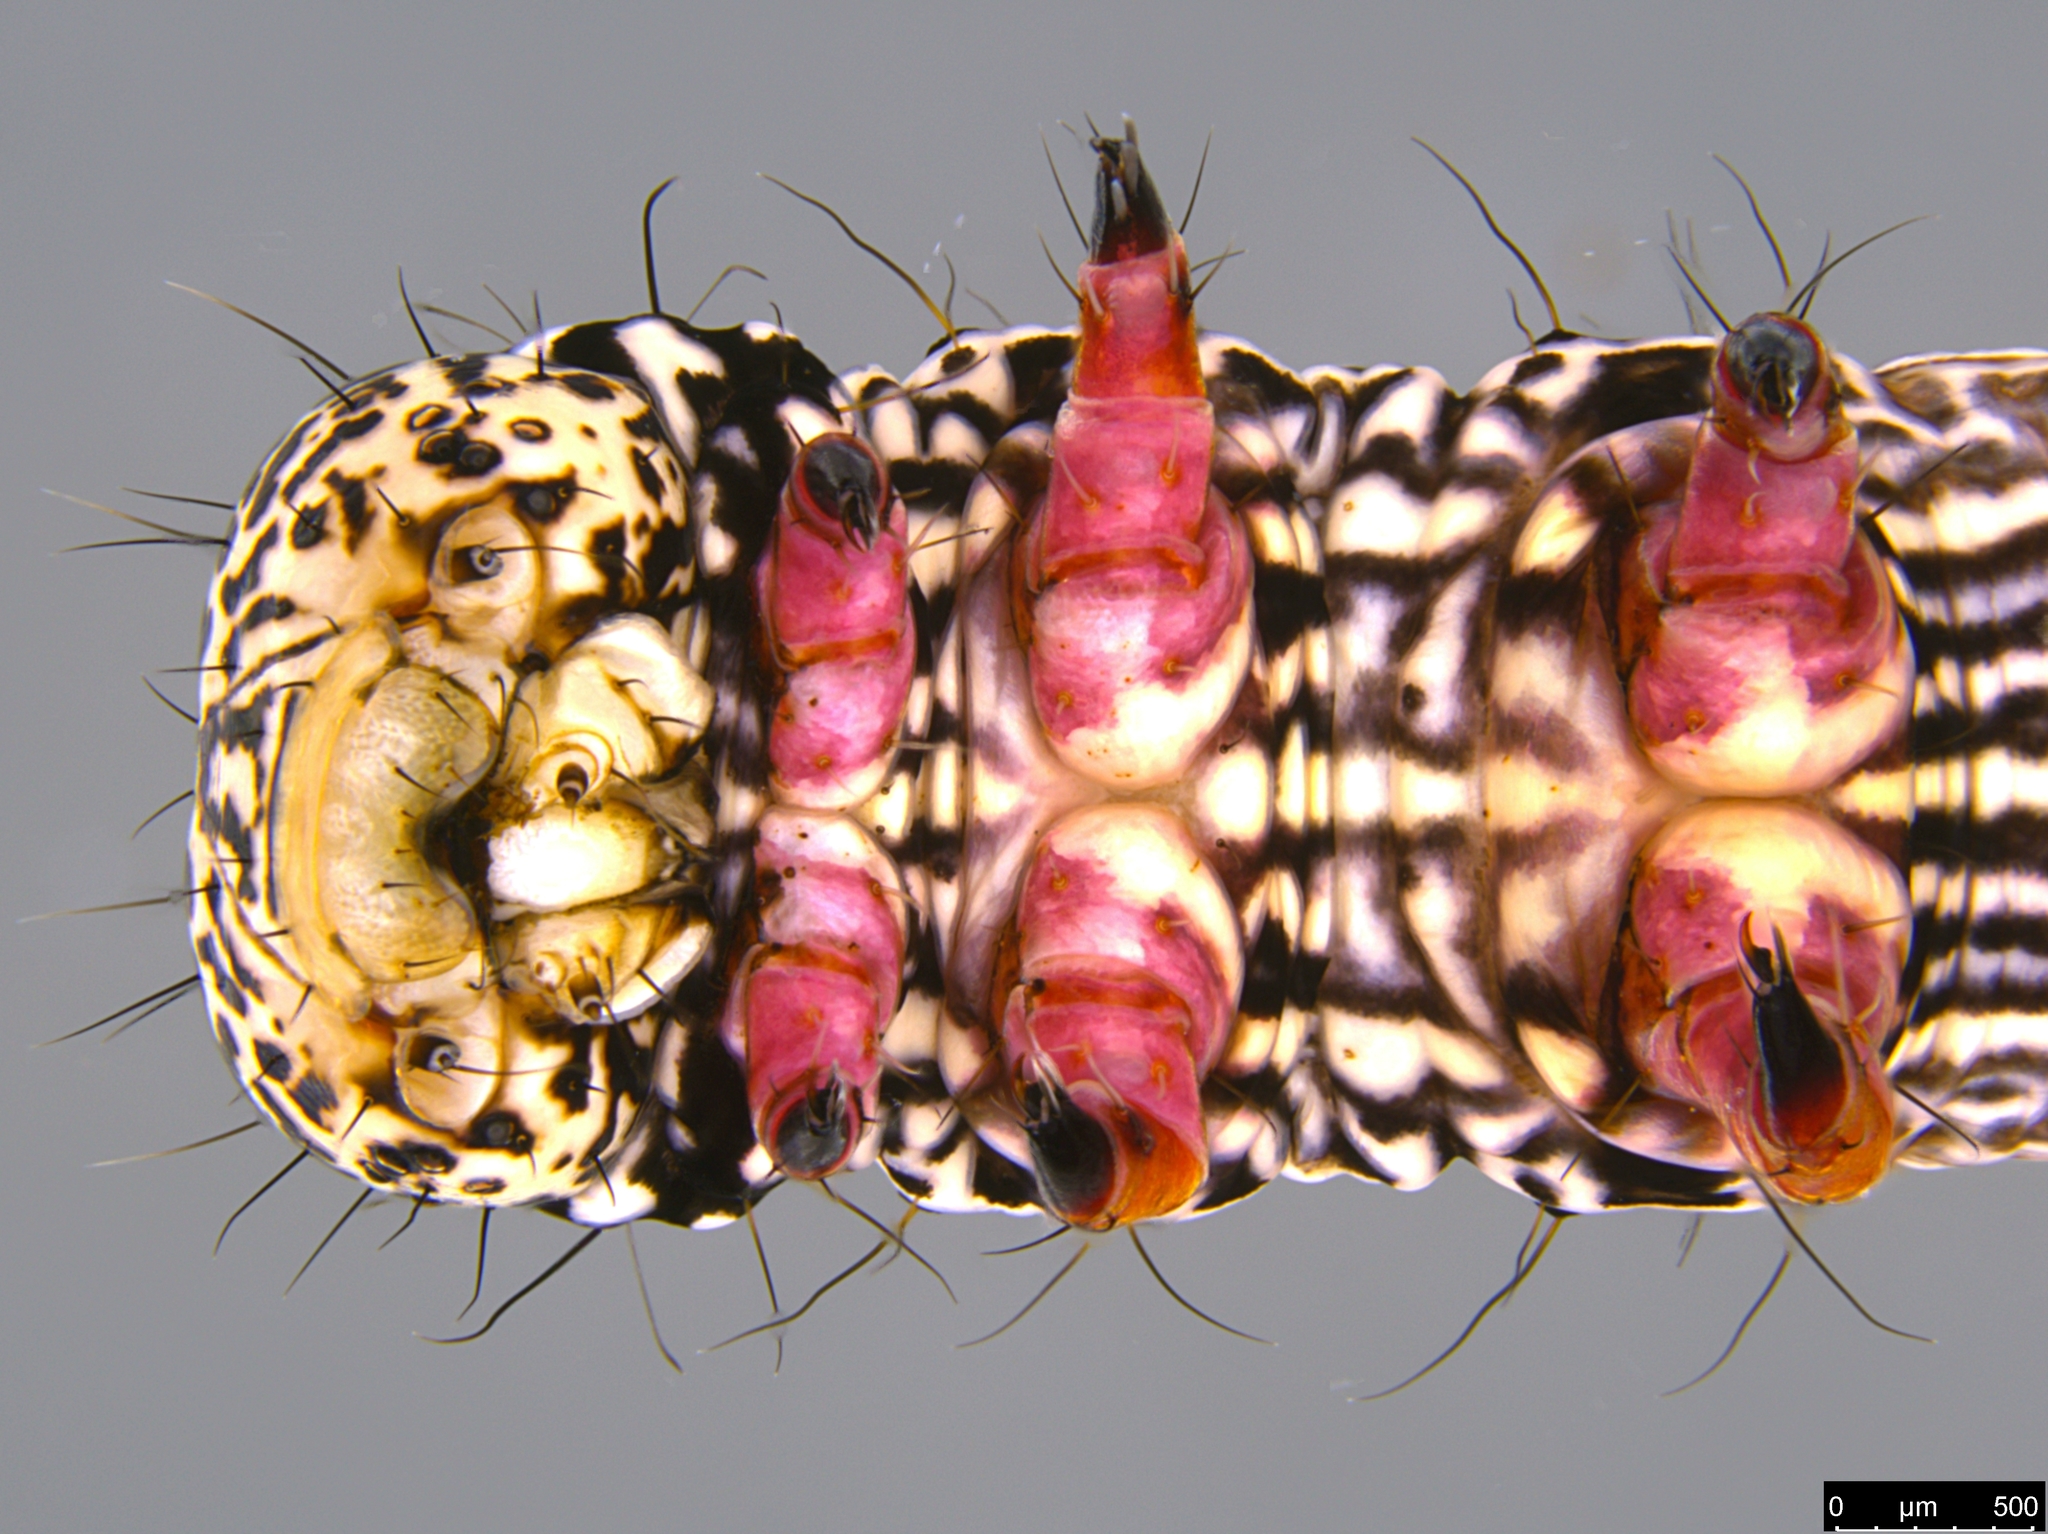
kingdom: Animalia
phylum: Arthropoda
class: Insecta
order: Lepidoptera
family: Geometridae
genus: Chlenias
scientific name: Chlenias banksiaria
